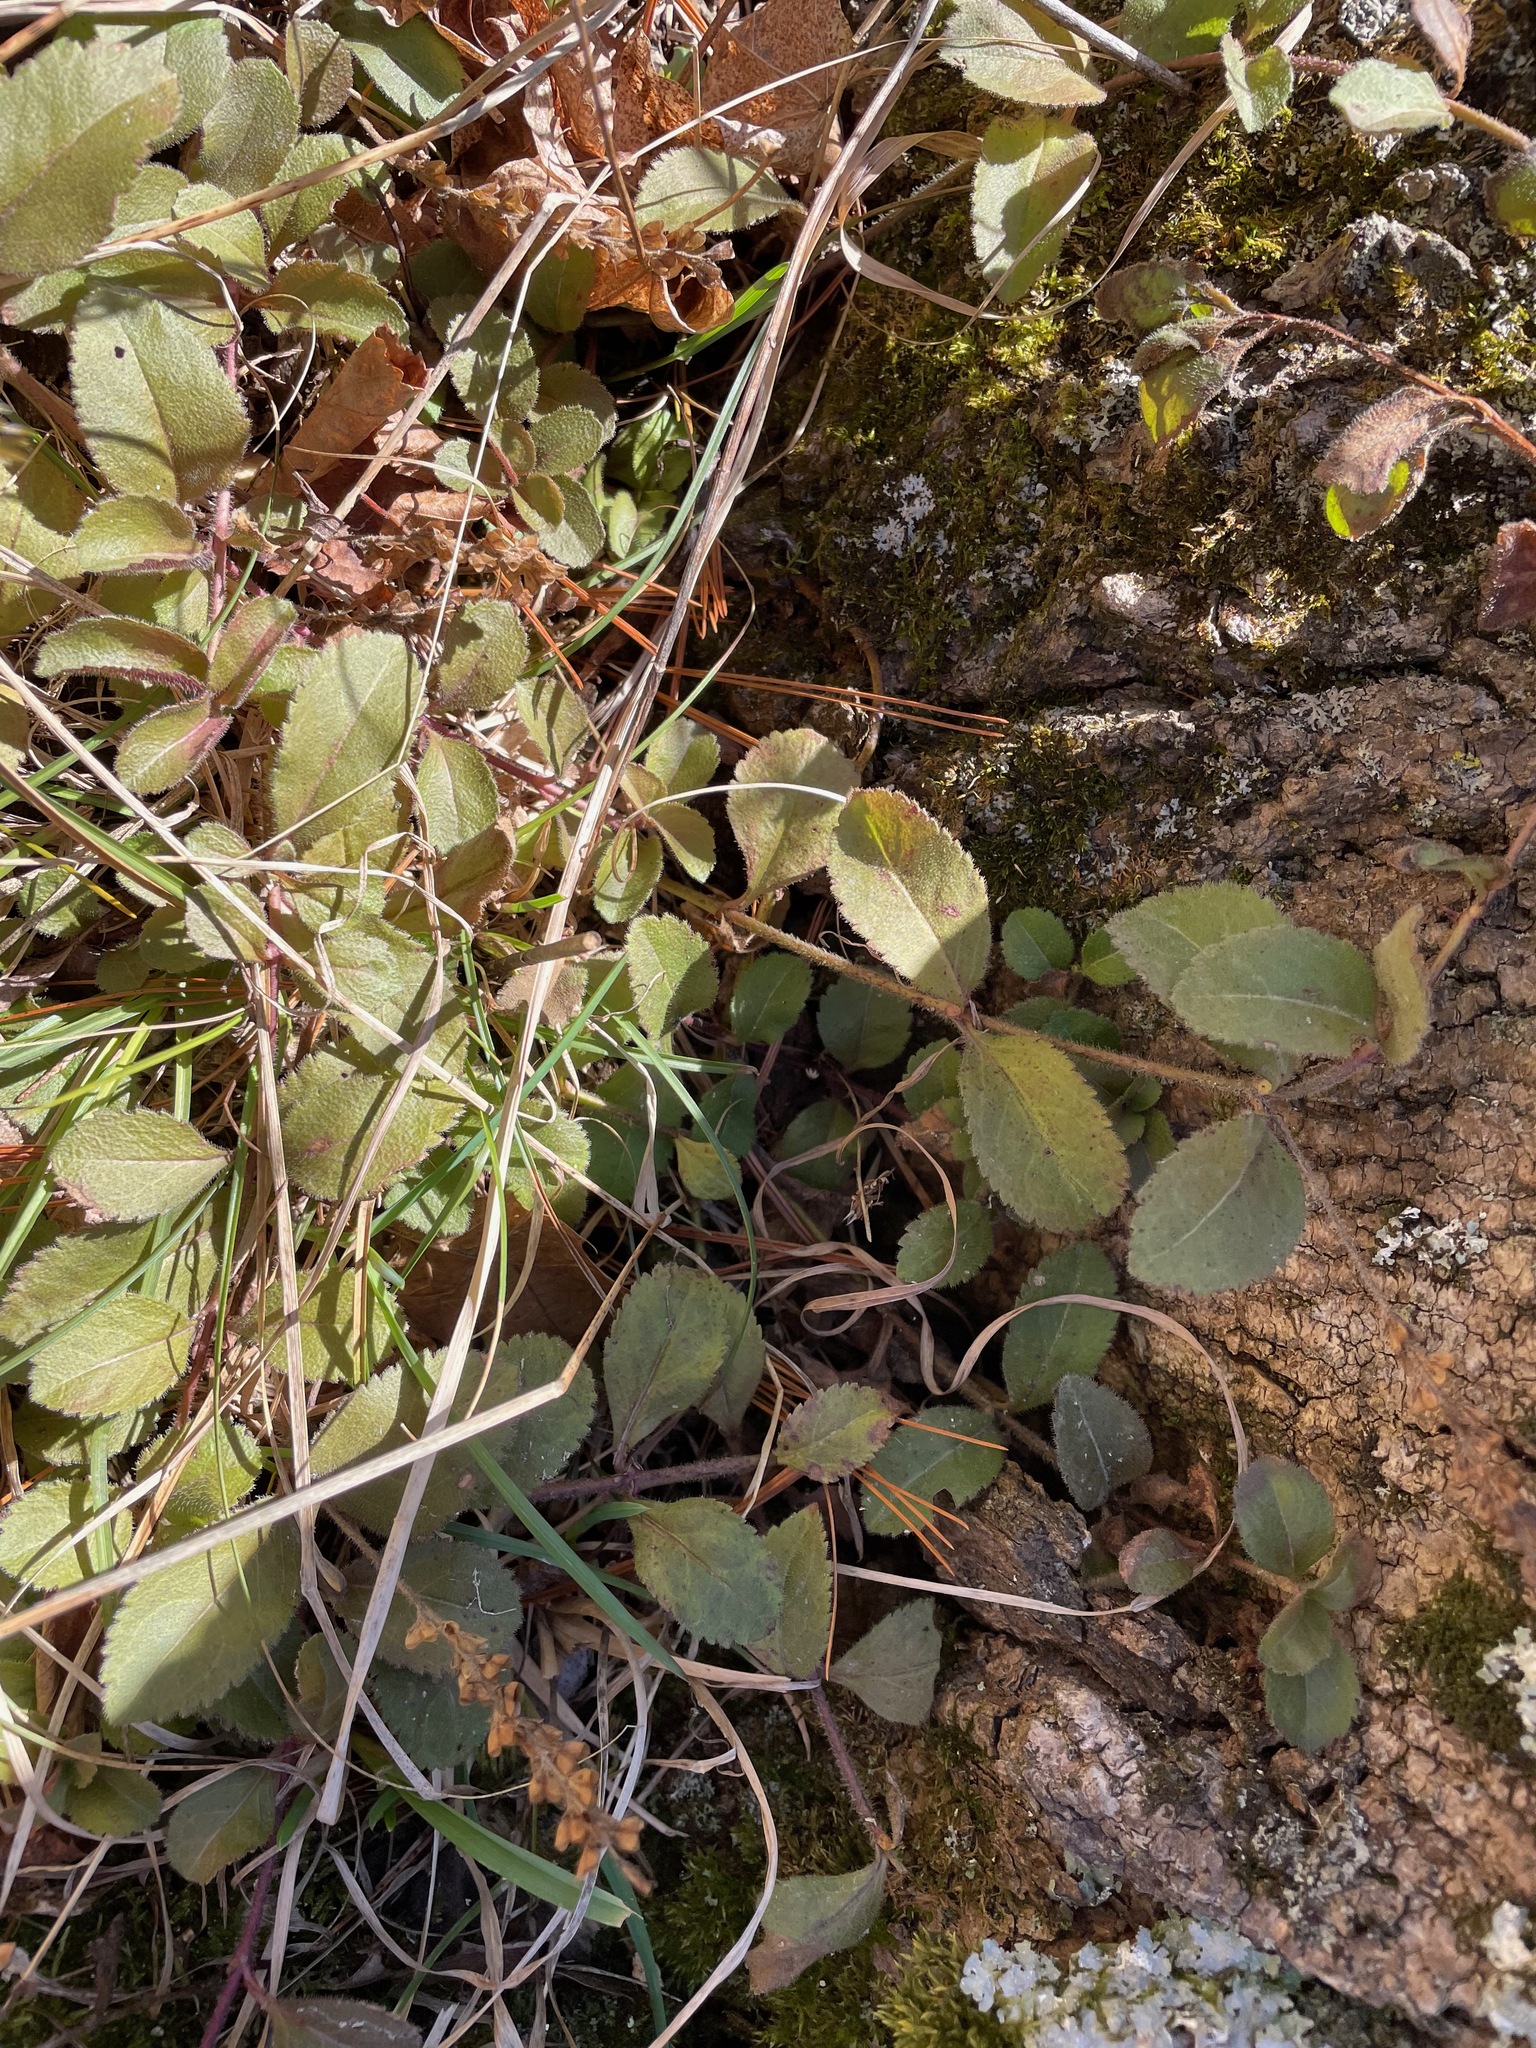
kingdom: Plantae
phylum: Tracheophyta
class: Magnoliopsida
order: Lamiales
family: Plantaginaceae
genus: Veronica
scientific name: Veronica officinalis
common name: Common speedwell
